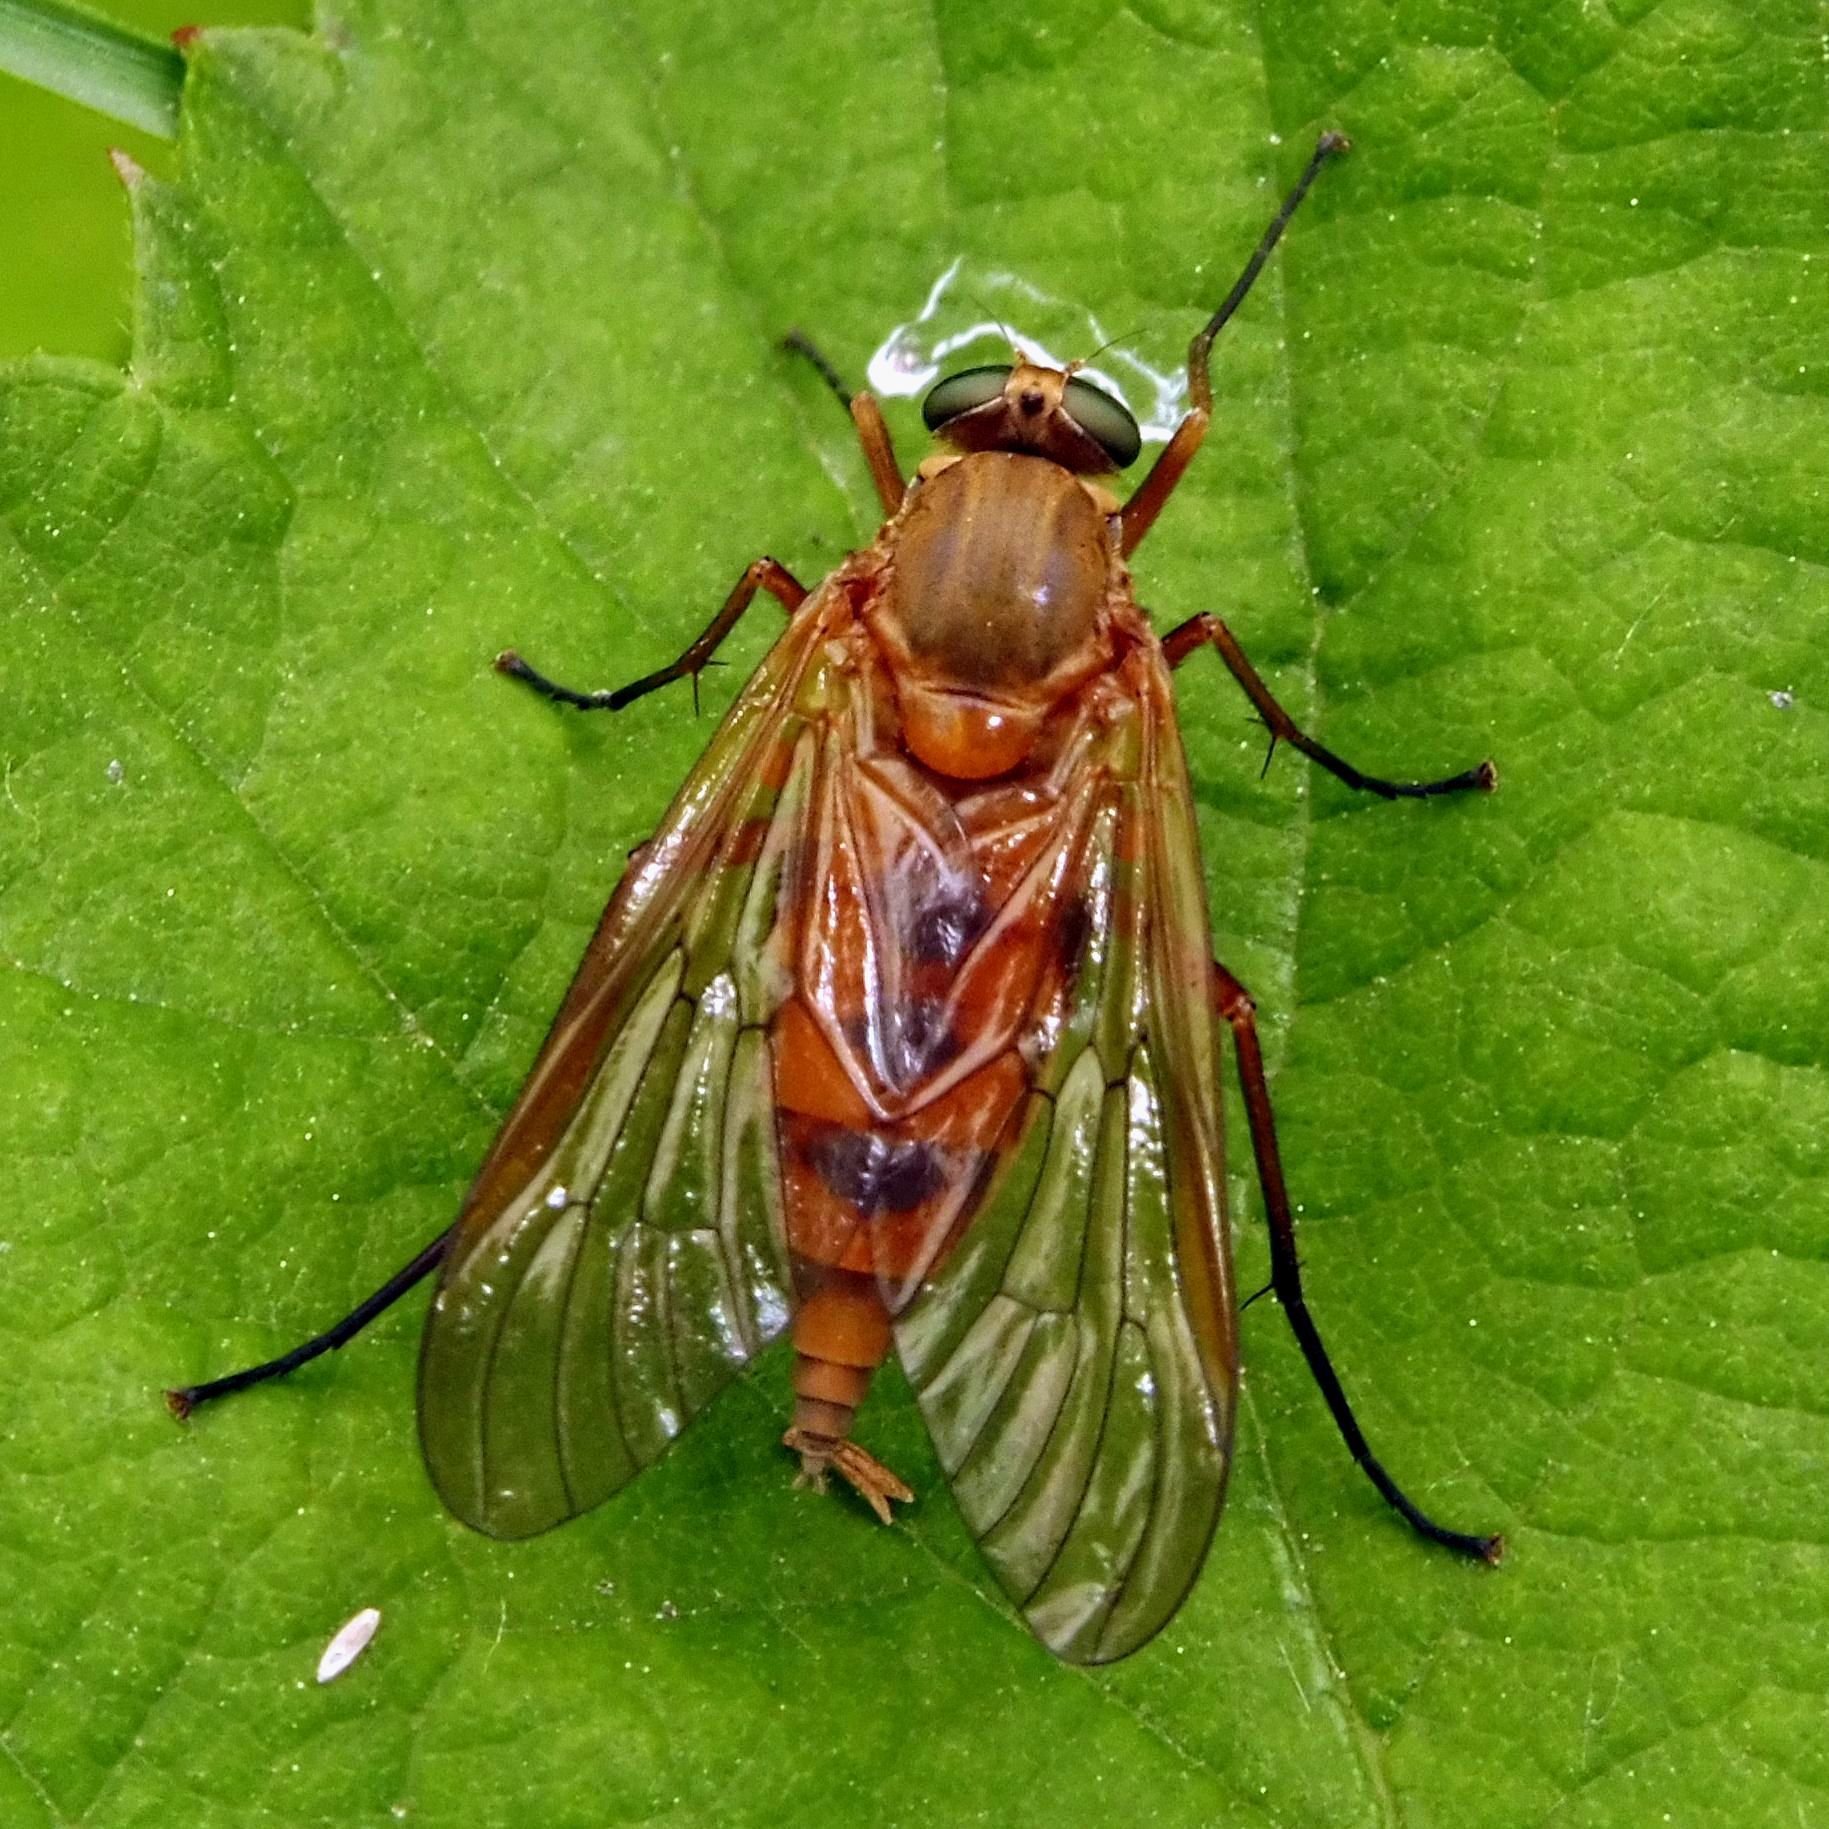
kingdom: Animalia
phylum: Arthropoda
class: Insecta
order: Diptera
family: Rhagionidae
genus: Rhagio
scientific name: Rhagio tringaria
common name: Marsh snipefly
